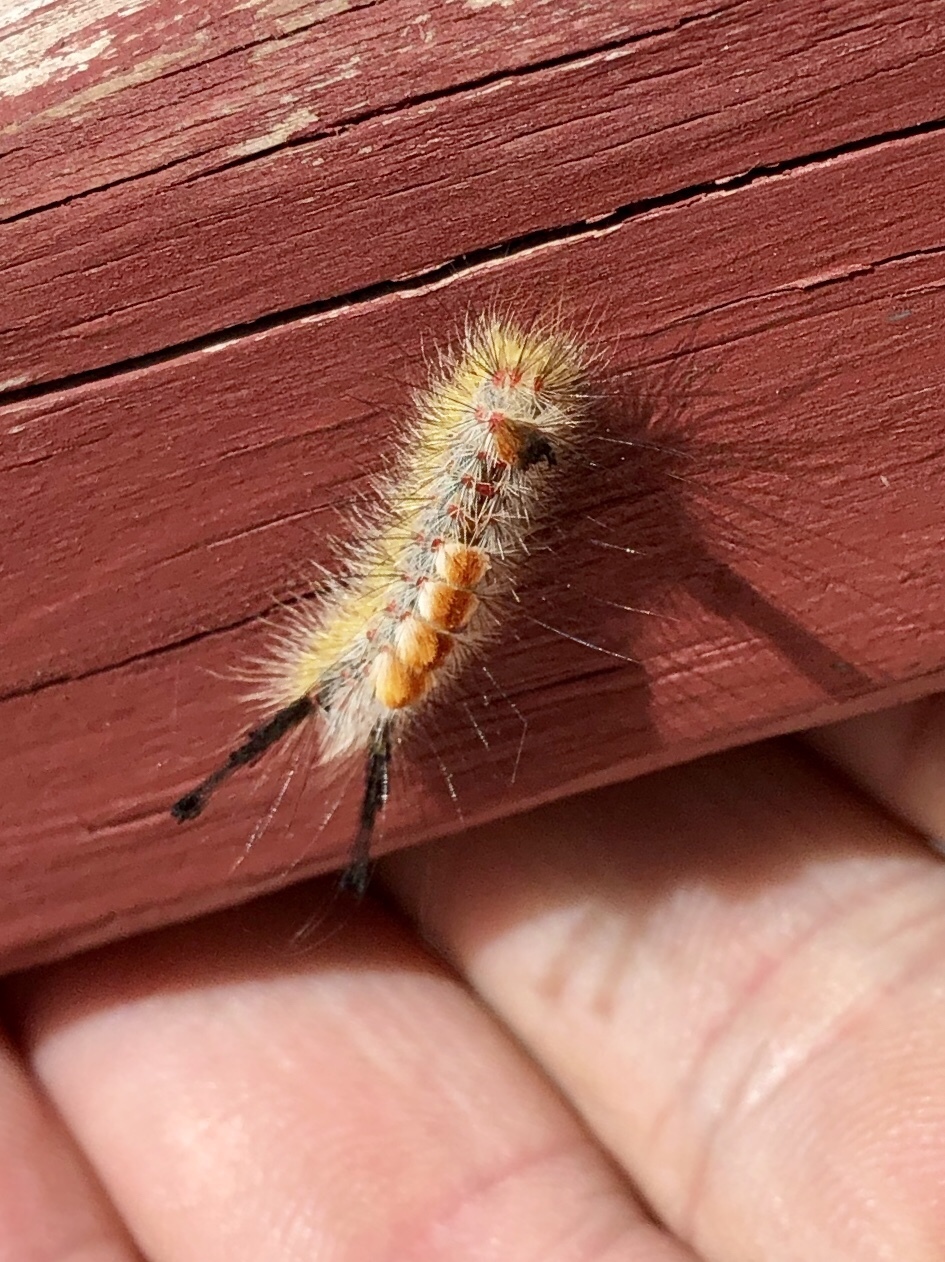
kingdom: Animalia
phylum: Arthropoda
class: Insecta
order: Lepidoptera
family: Erebidae
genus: Orgyia
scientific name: Orgyia pseudotsugata
